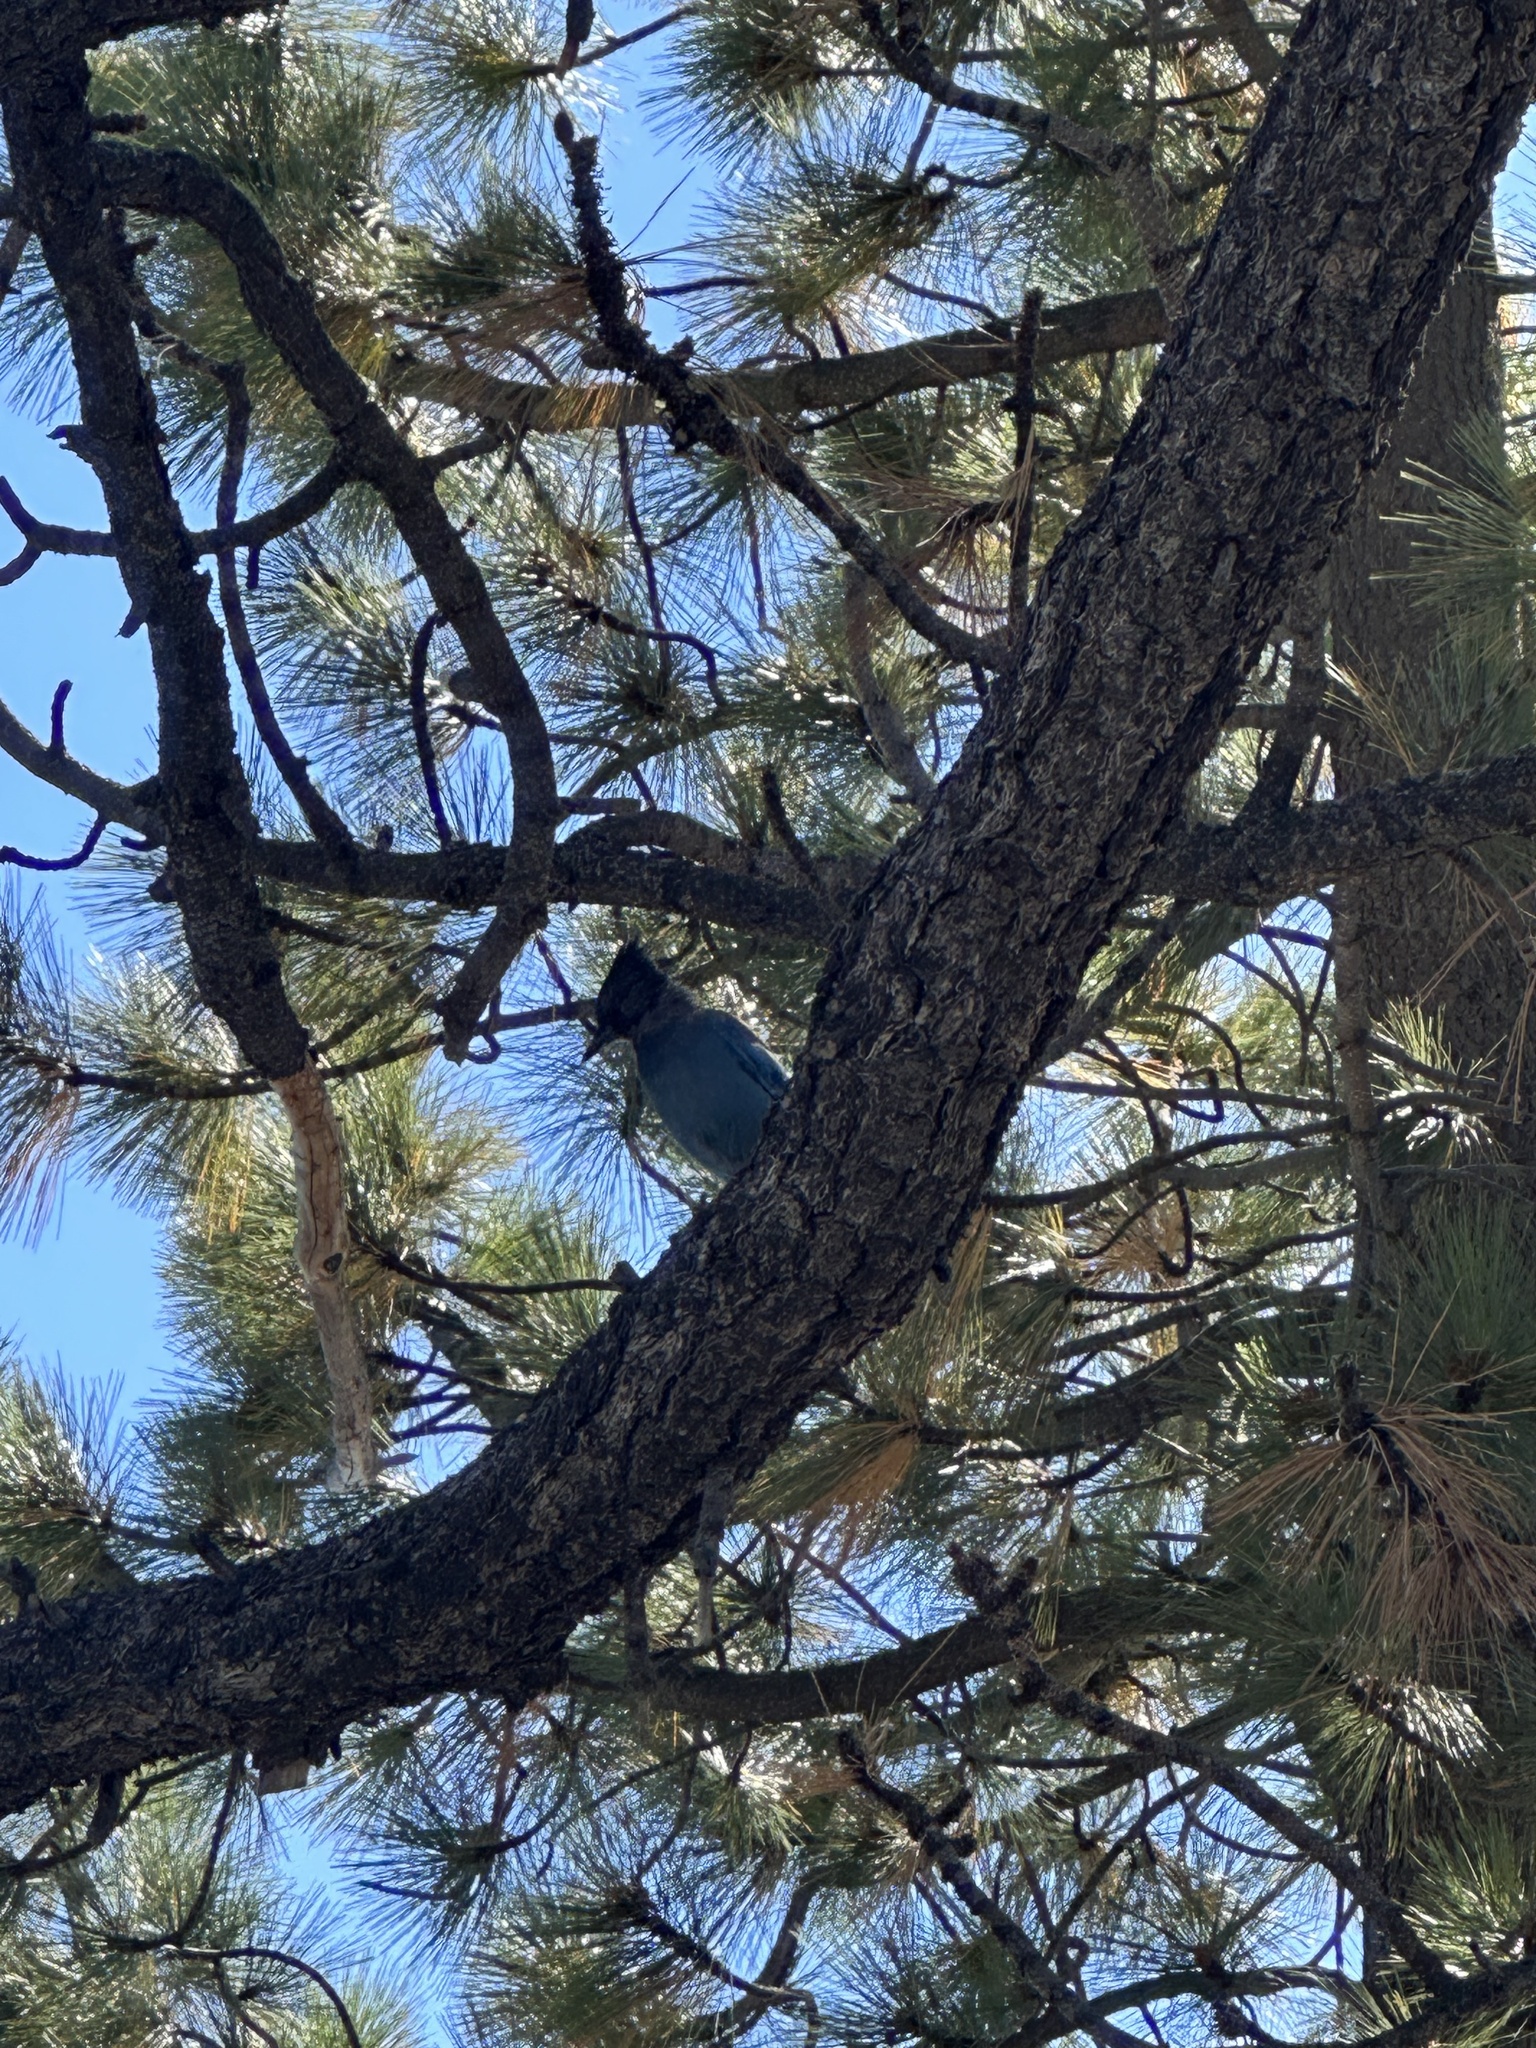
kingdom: Animalia
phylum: Chordata
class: Aves
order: Passeriformes
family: Corvidae
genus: Cyanocitta
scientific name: Cyanocitta stelleri
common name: Steller's jay
